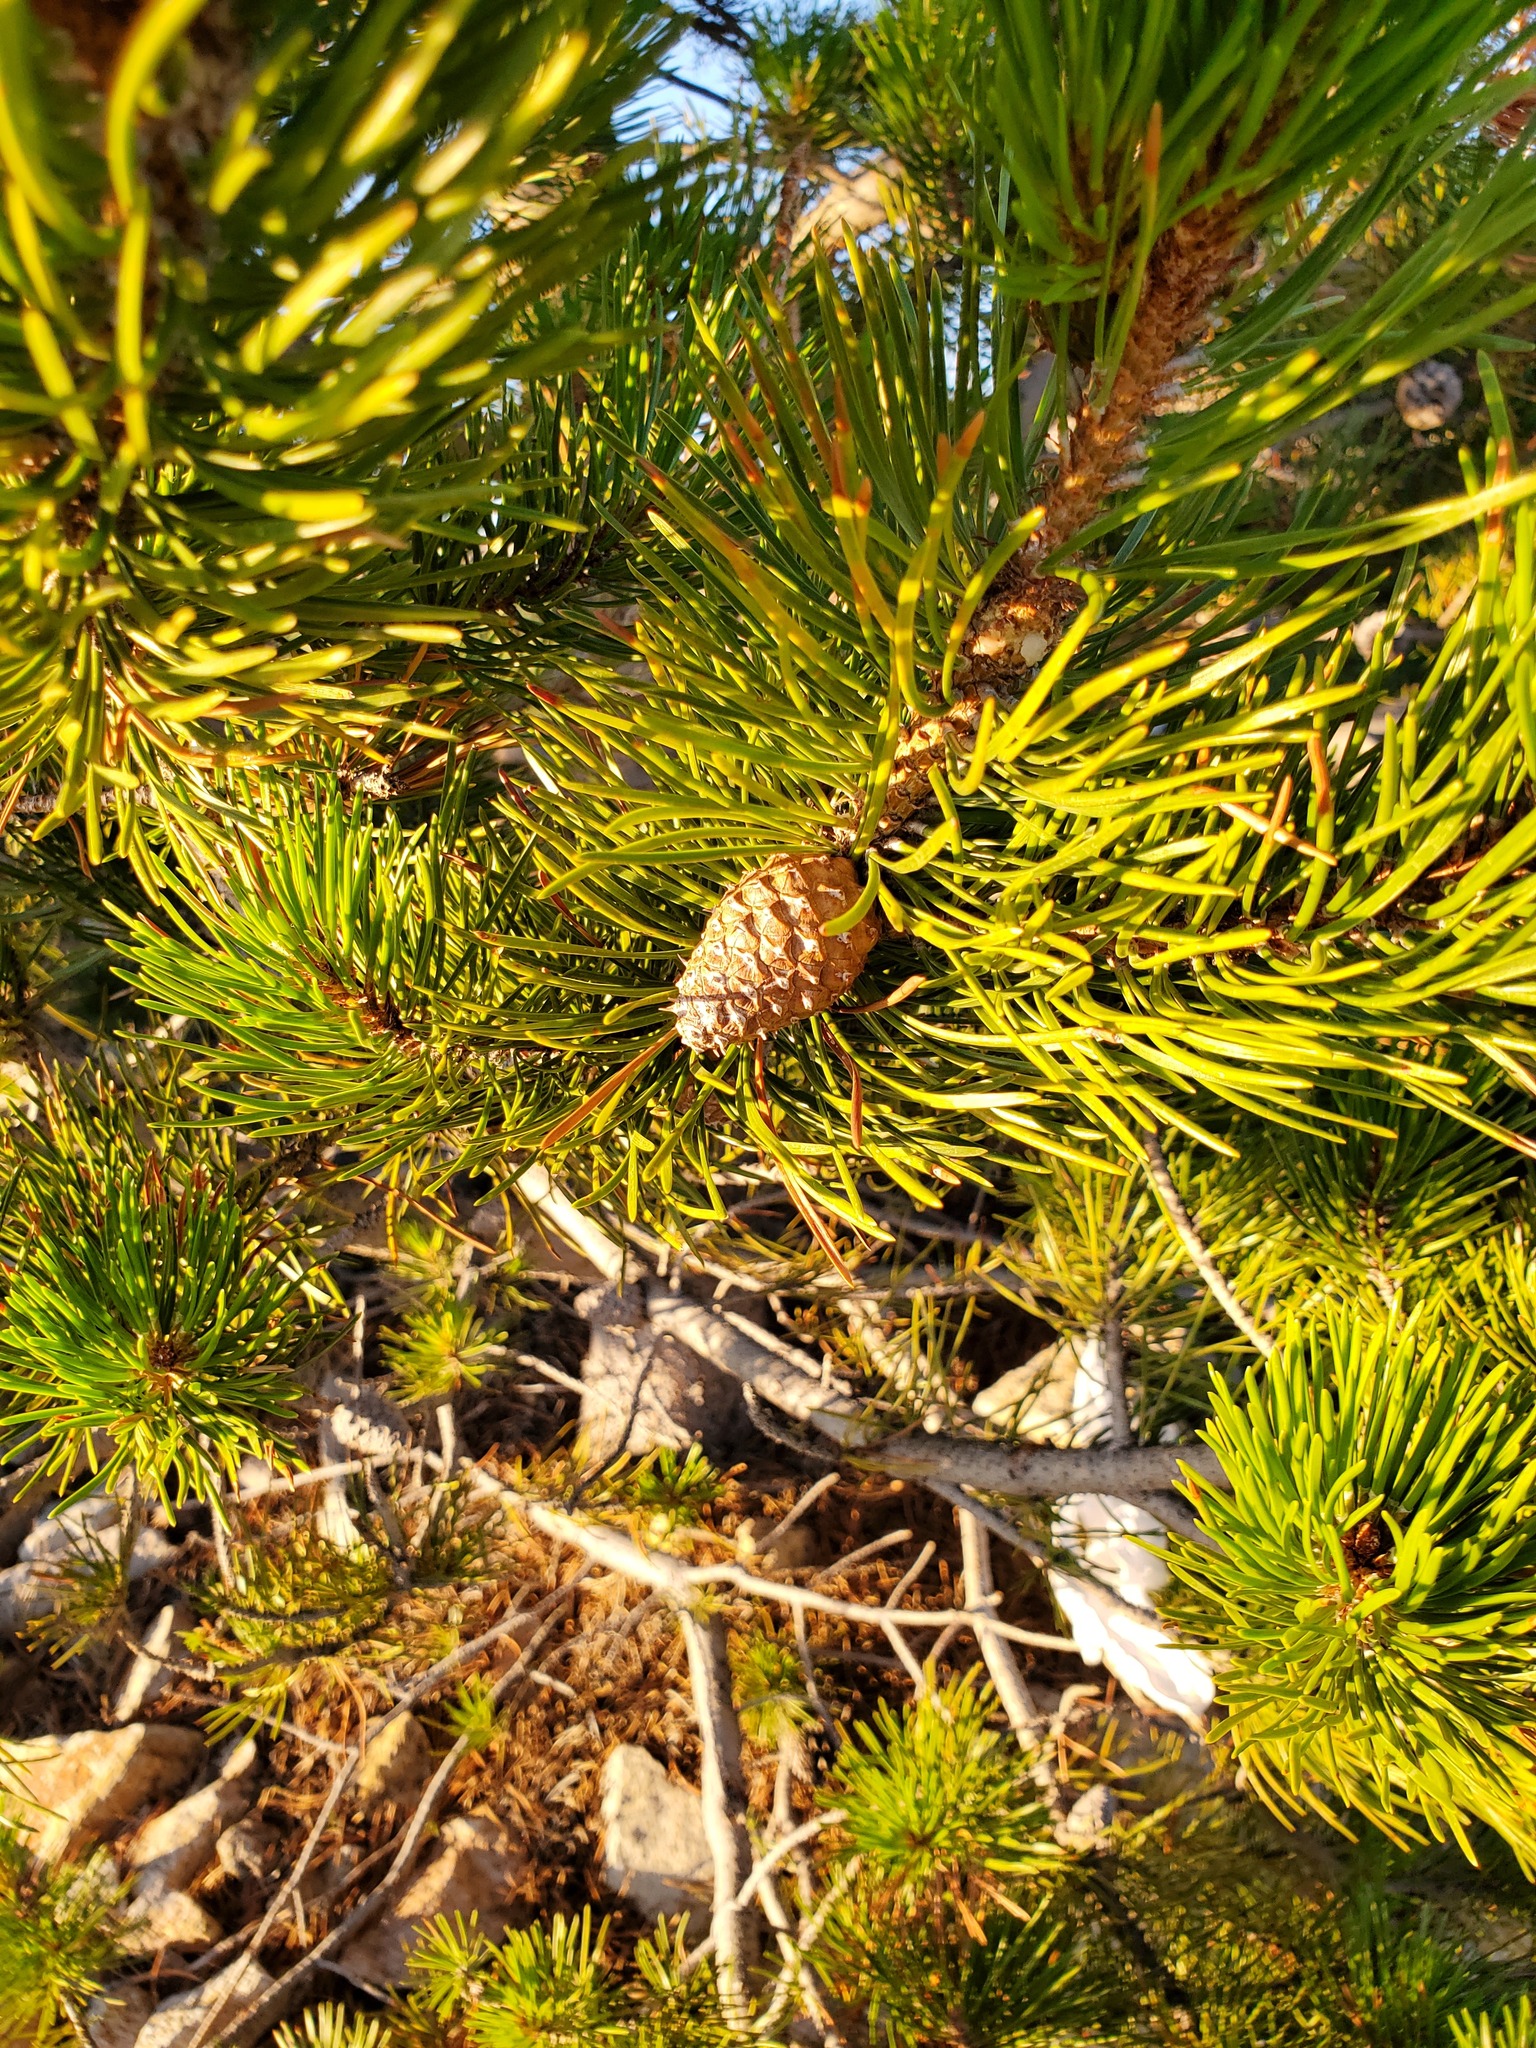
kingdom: Plantae
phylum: Tracheophyta
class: Pinopsida
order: Pinales
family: Pinaceae
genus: Pinus
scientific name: Pinus contorta
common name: Lodgepole pine
